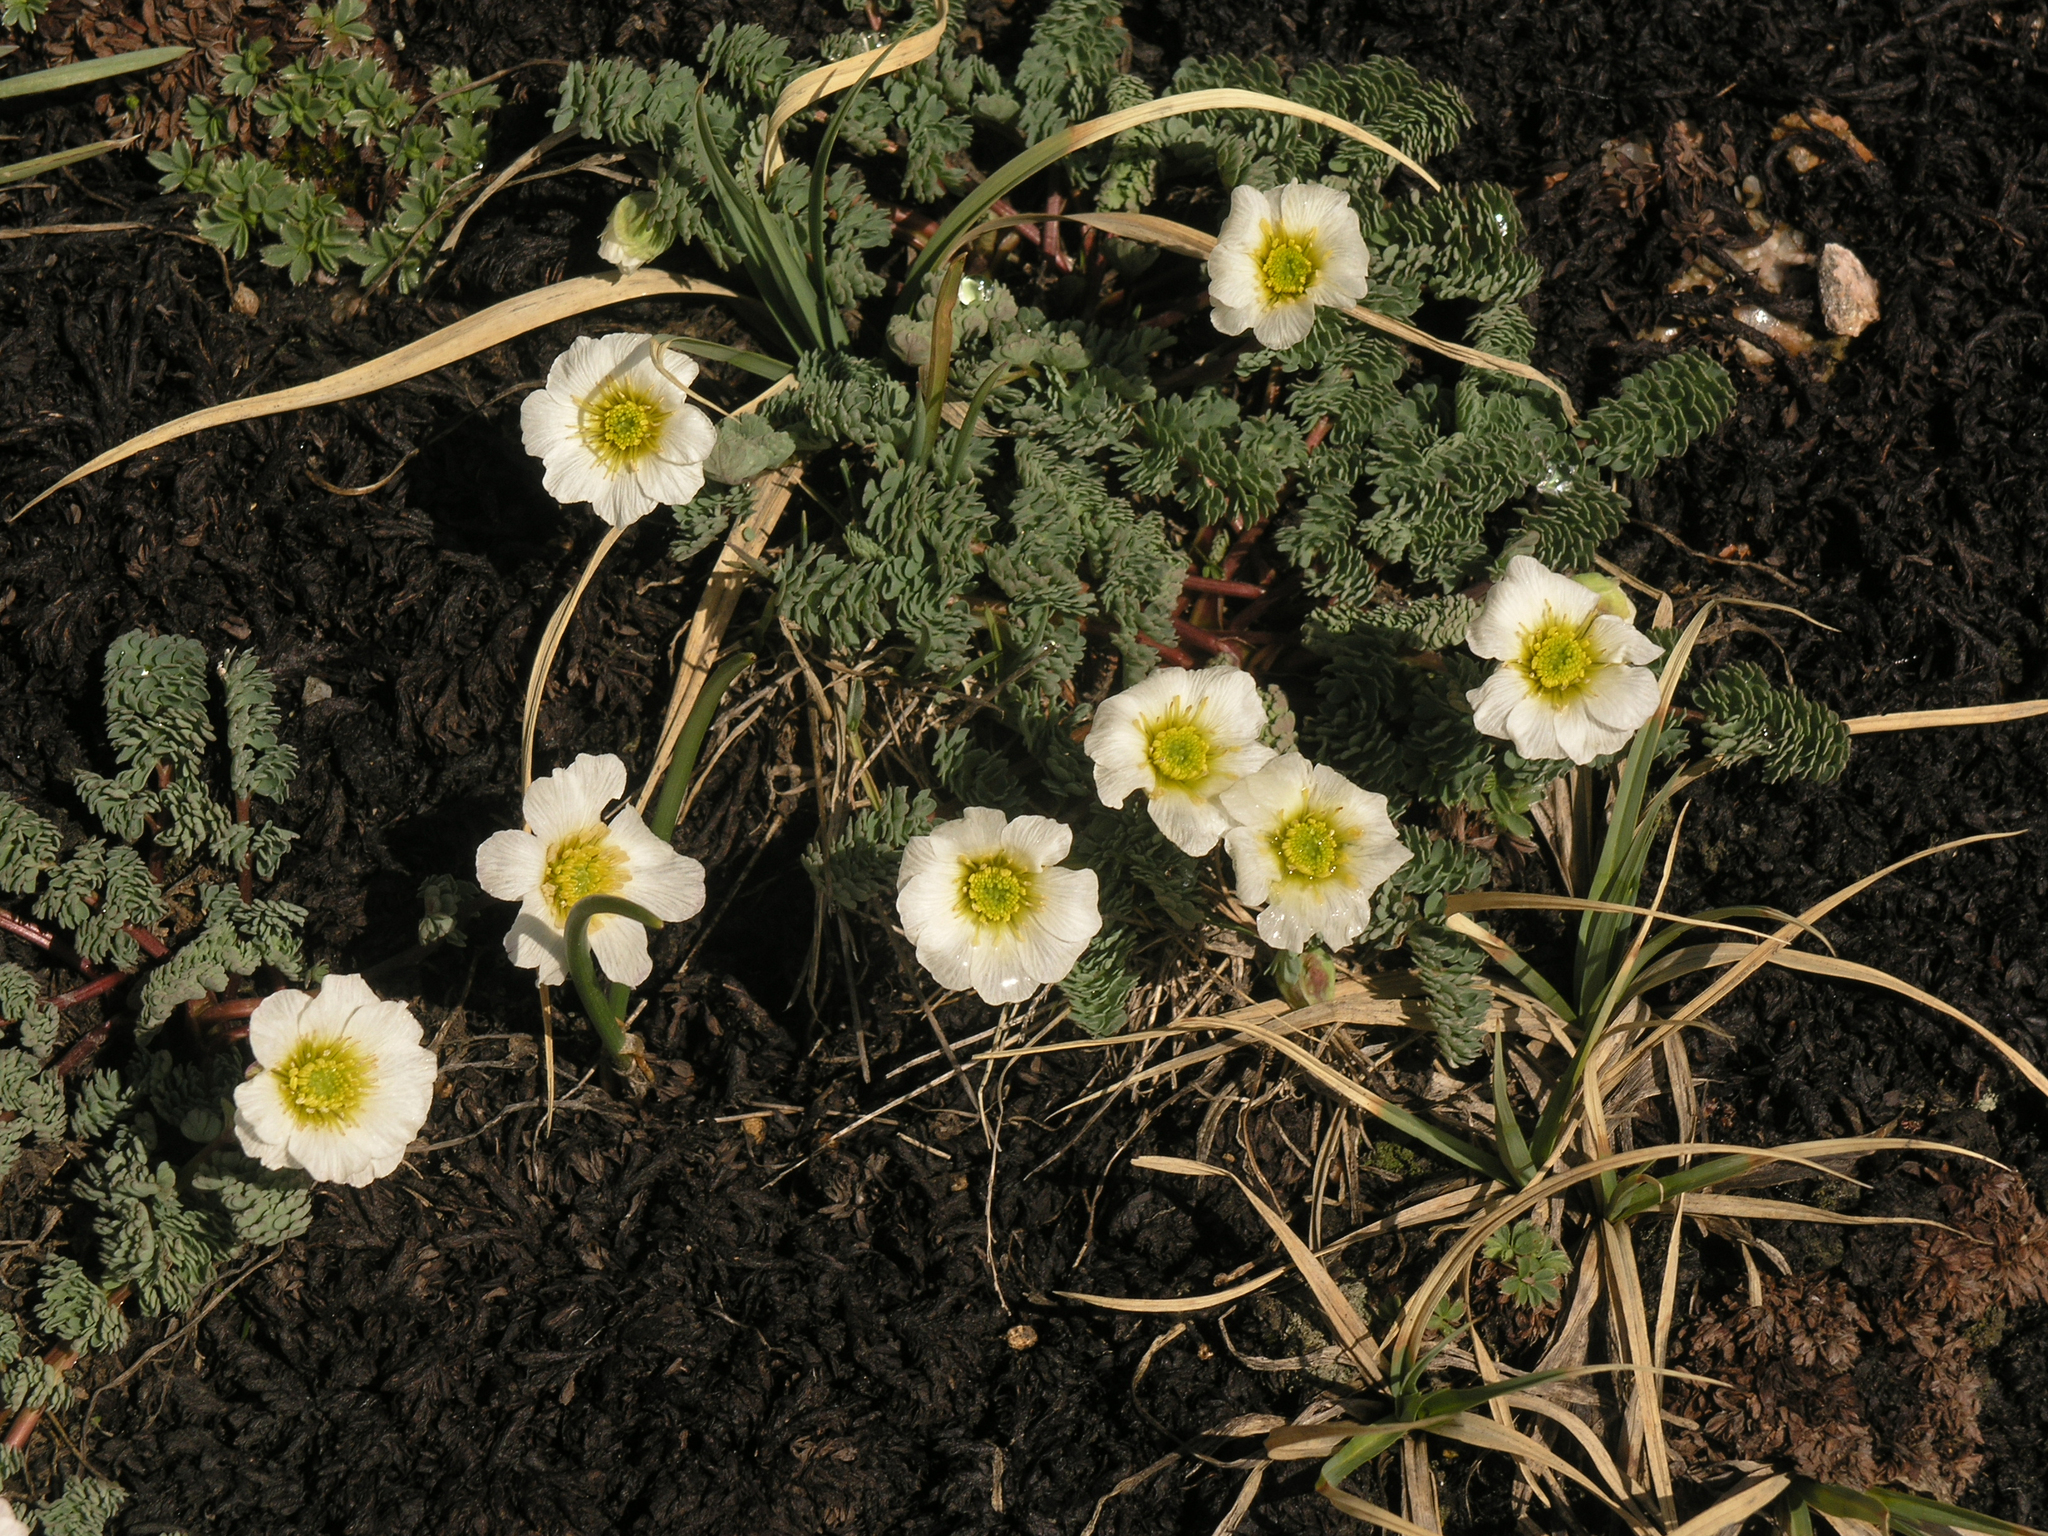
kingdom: Plantae
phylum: Tracheophyta
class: Magnoliopsida
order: Ranunculales
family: Ranunculaceae
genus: Callianthemum
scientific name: Callianthemum alatavicum
